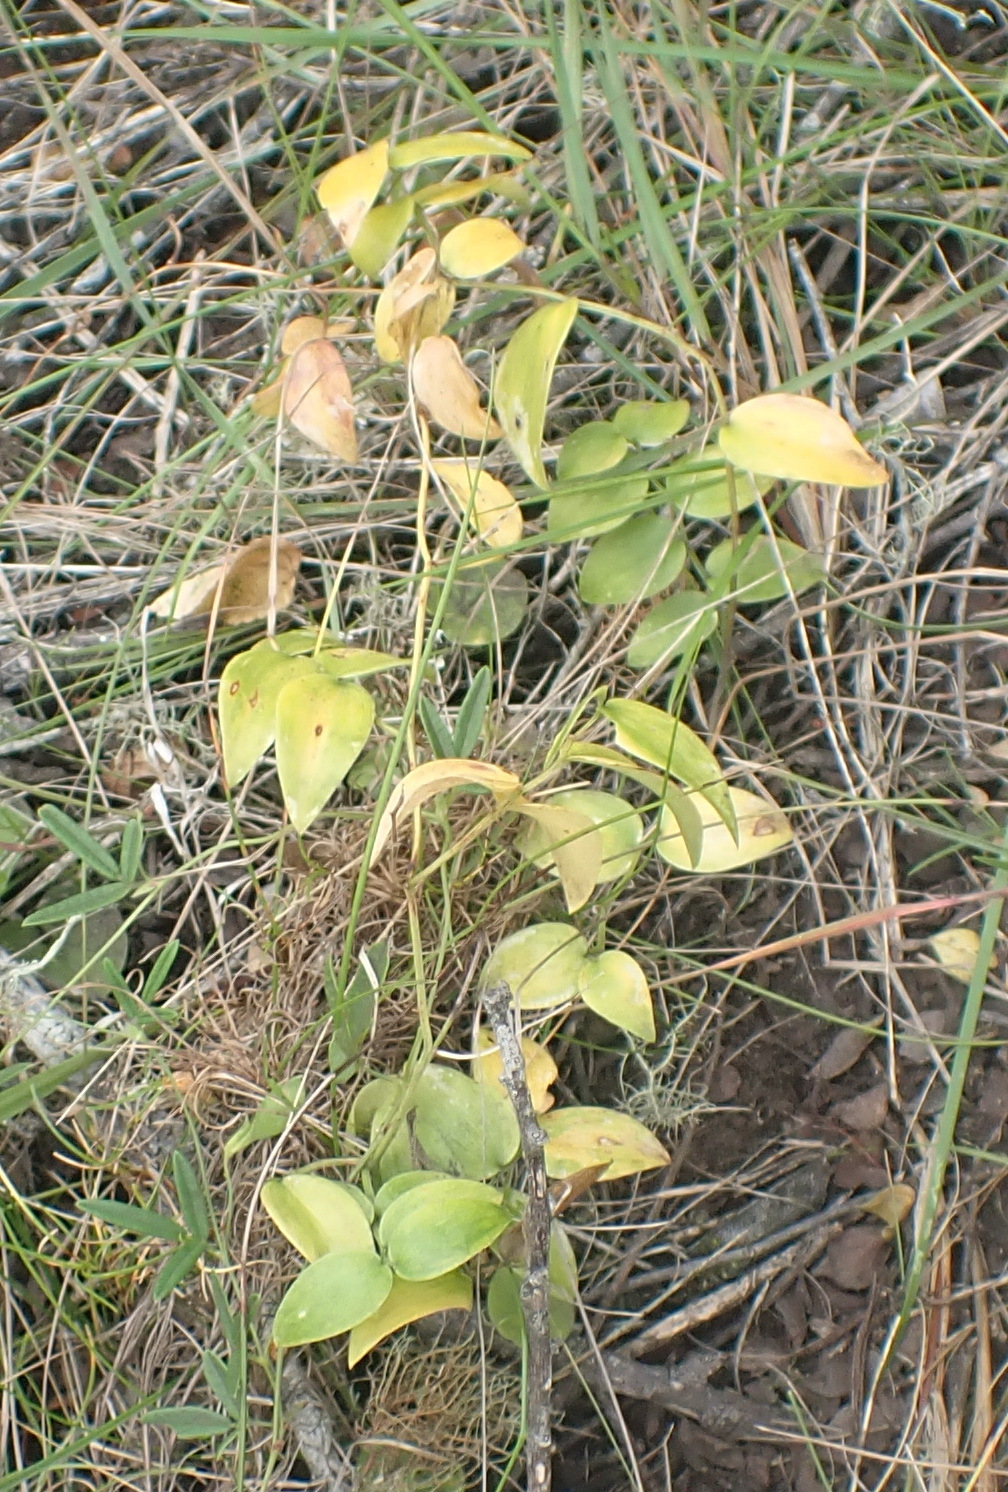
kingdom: Plantae
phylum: Tracheophyta
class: Liliopsida
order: Asparagales
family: Asparagaceae
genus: Asparagus
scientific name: Asparagus asparagoides
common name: African asparagus fern
